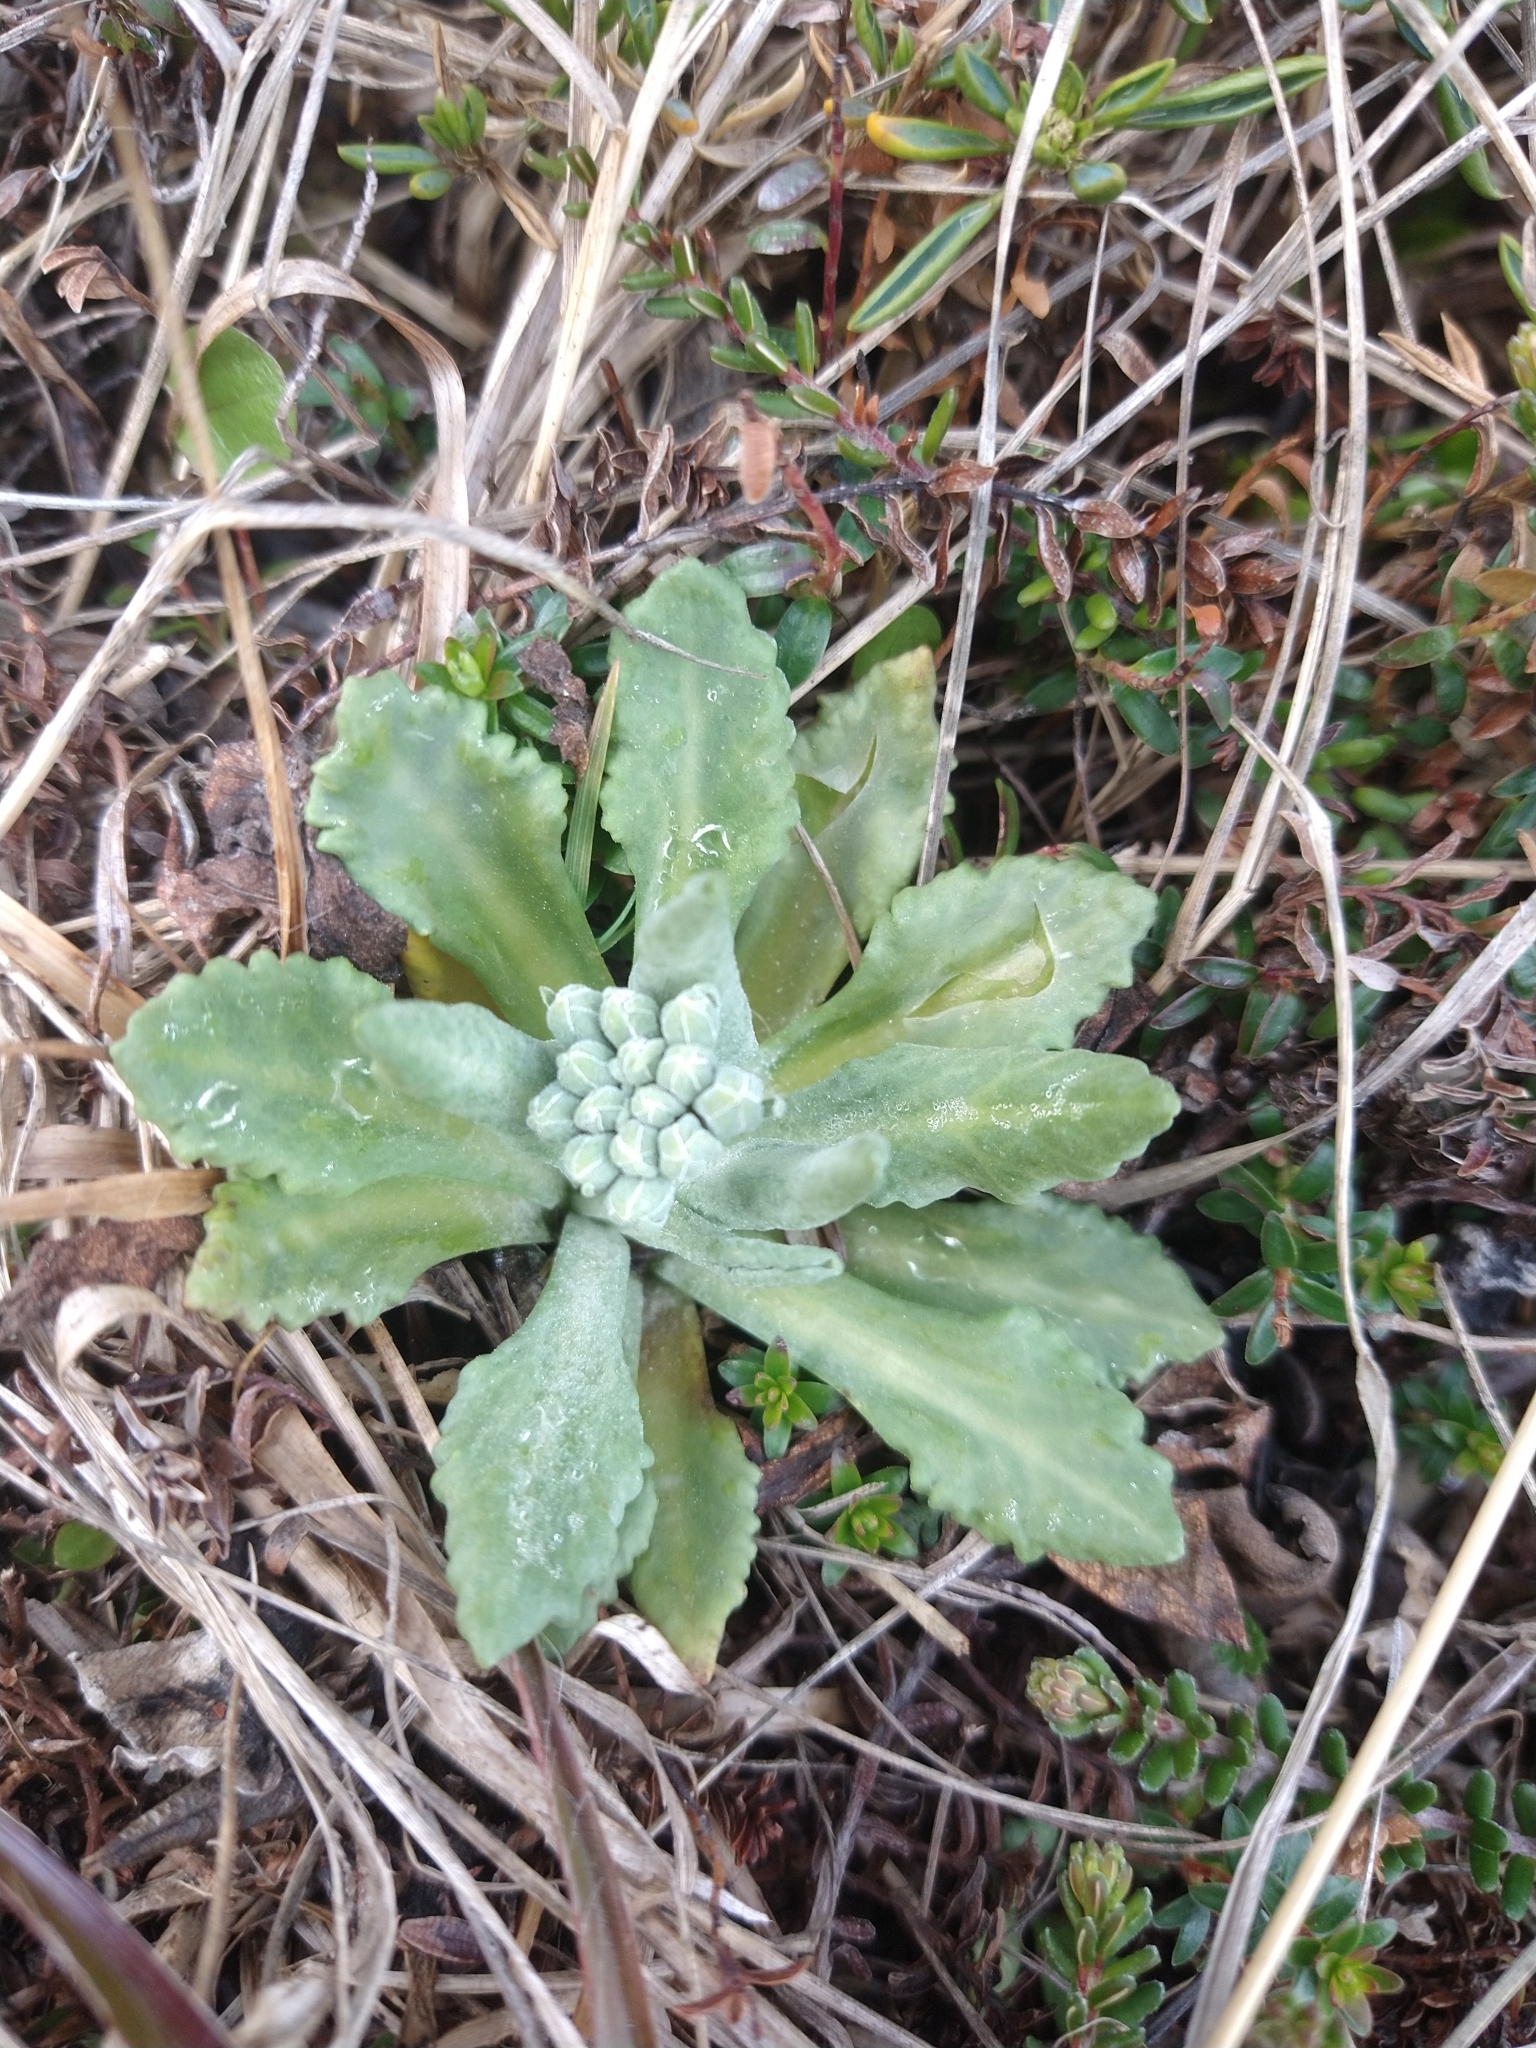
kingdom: Plantae
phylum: Tracheophyta
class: Magnoliopsida
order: Ericales
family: Primulaceae
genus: Primula
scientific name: Primula magellanica
